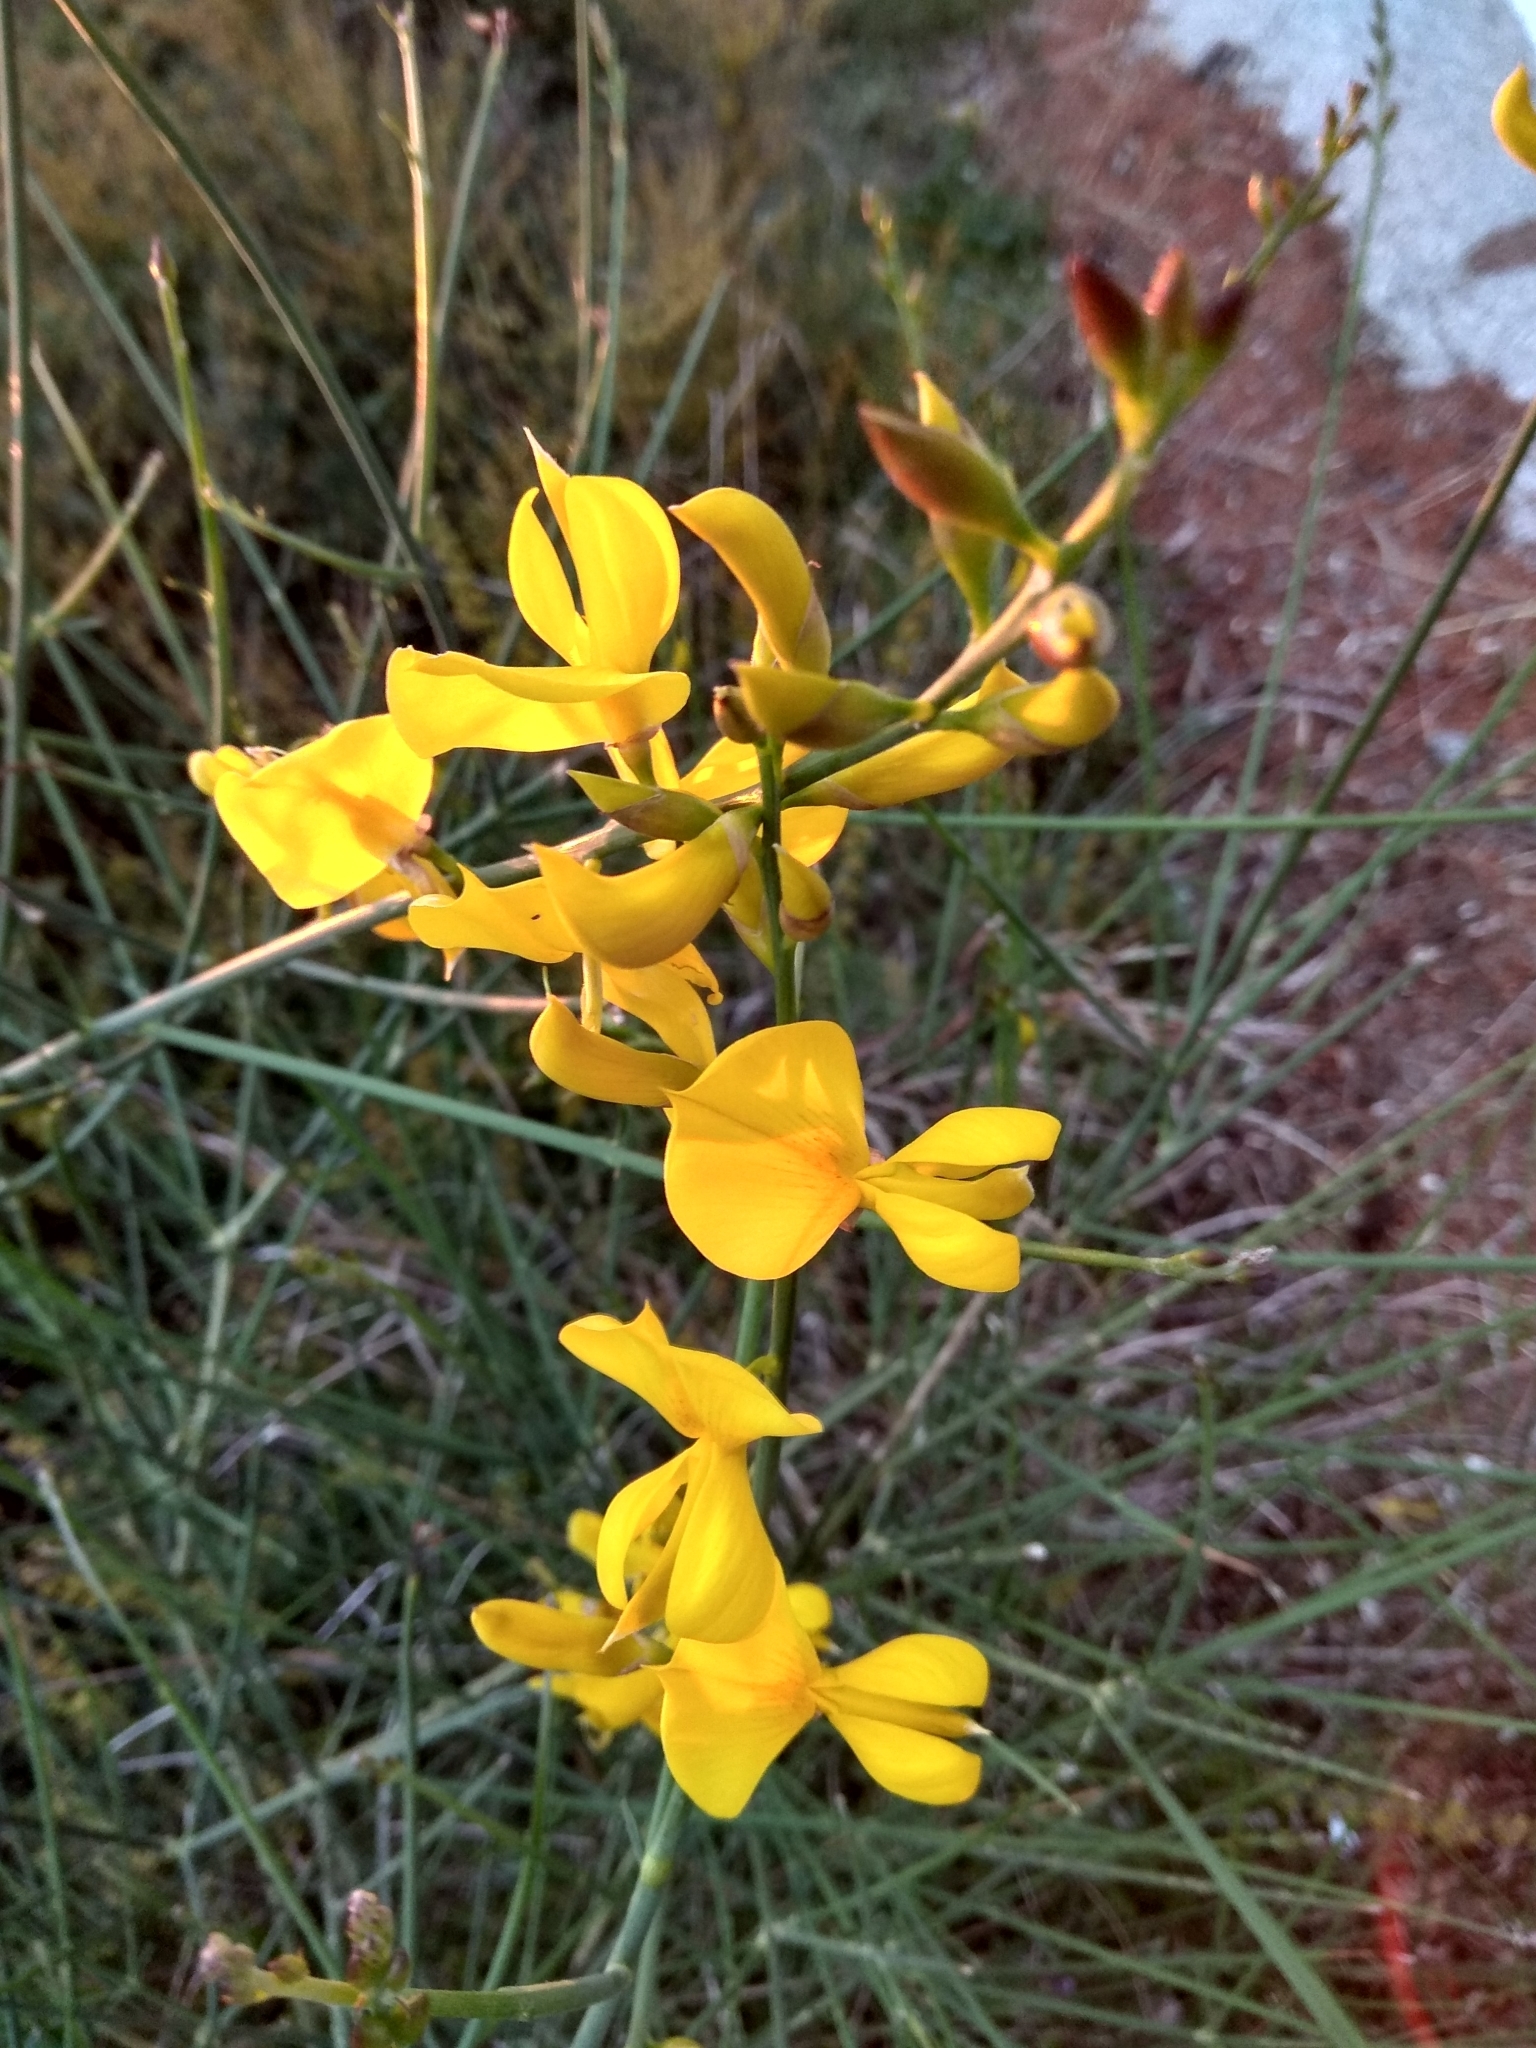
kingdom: Plantae
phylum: Tracheophyta
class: Magnoliopsida
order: Fabales
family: Fabaceae
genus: Spartium
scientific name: Spartium junceum
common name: Spanish broom
